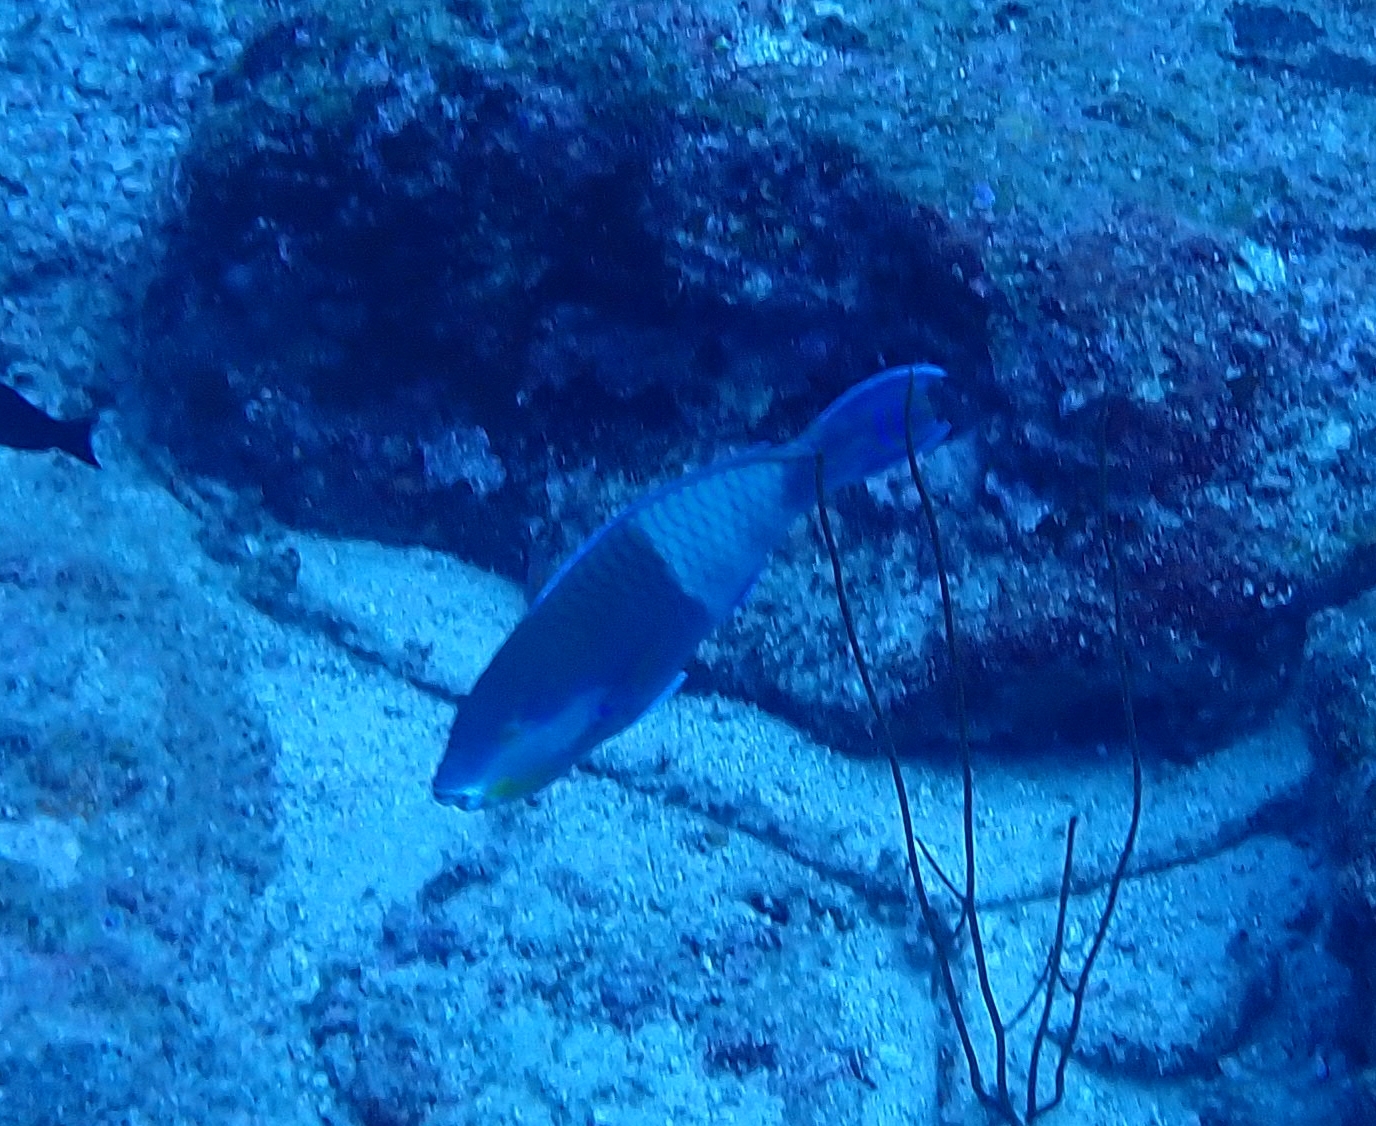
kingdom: Animalia
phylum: Chordata
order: Perciformes
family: Scaridae
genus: Scarus
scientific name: Scarus russelii
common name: Eclipse parrotfish
